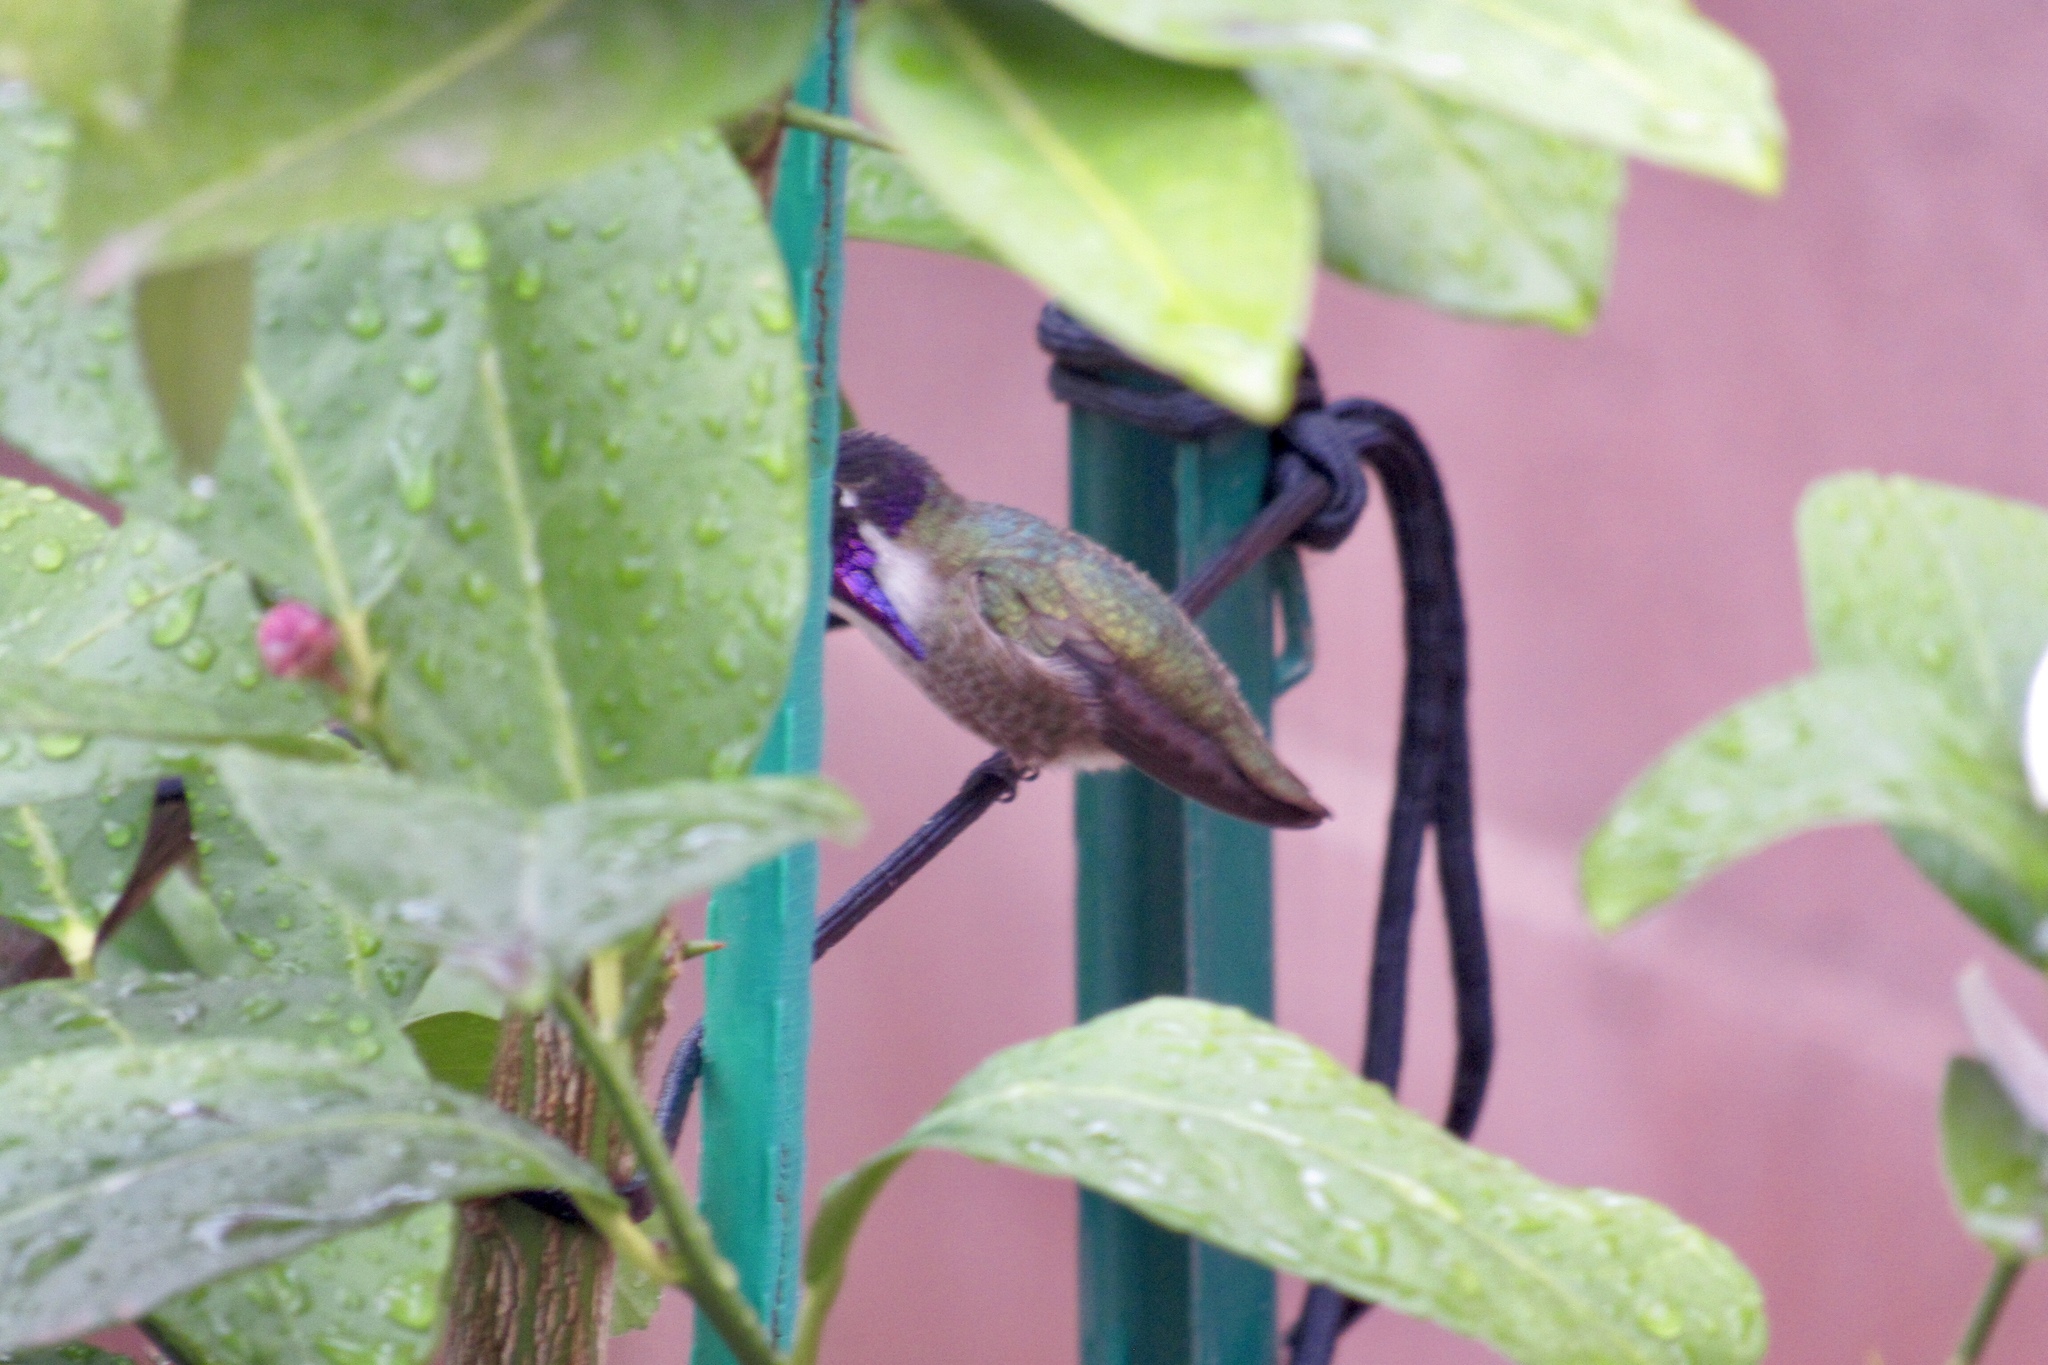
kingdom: Animalia
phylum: Chordata
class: Aves
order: Apodiformes
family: Trochilidae
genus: Calypte
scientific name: Calypte costae
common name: Costa's hummingbird
